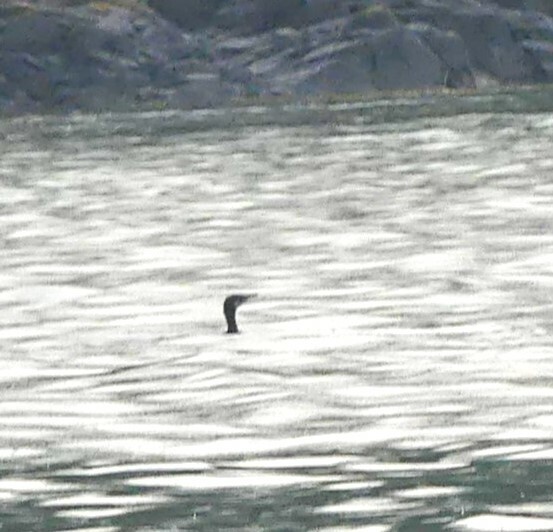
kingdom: Animalia
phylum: Chordata
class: Aves
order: Suliformes
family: Phalacrocoracidae
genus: Urile
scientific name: Urile penicillatus
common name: Brandt's cormorant
